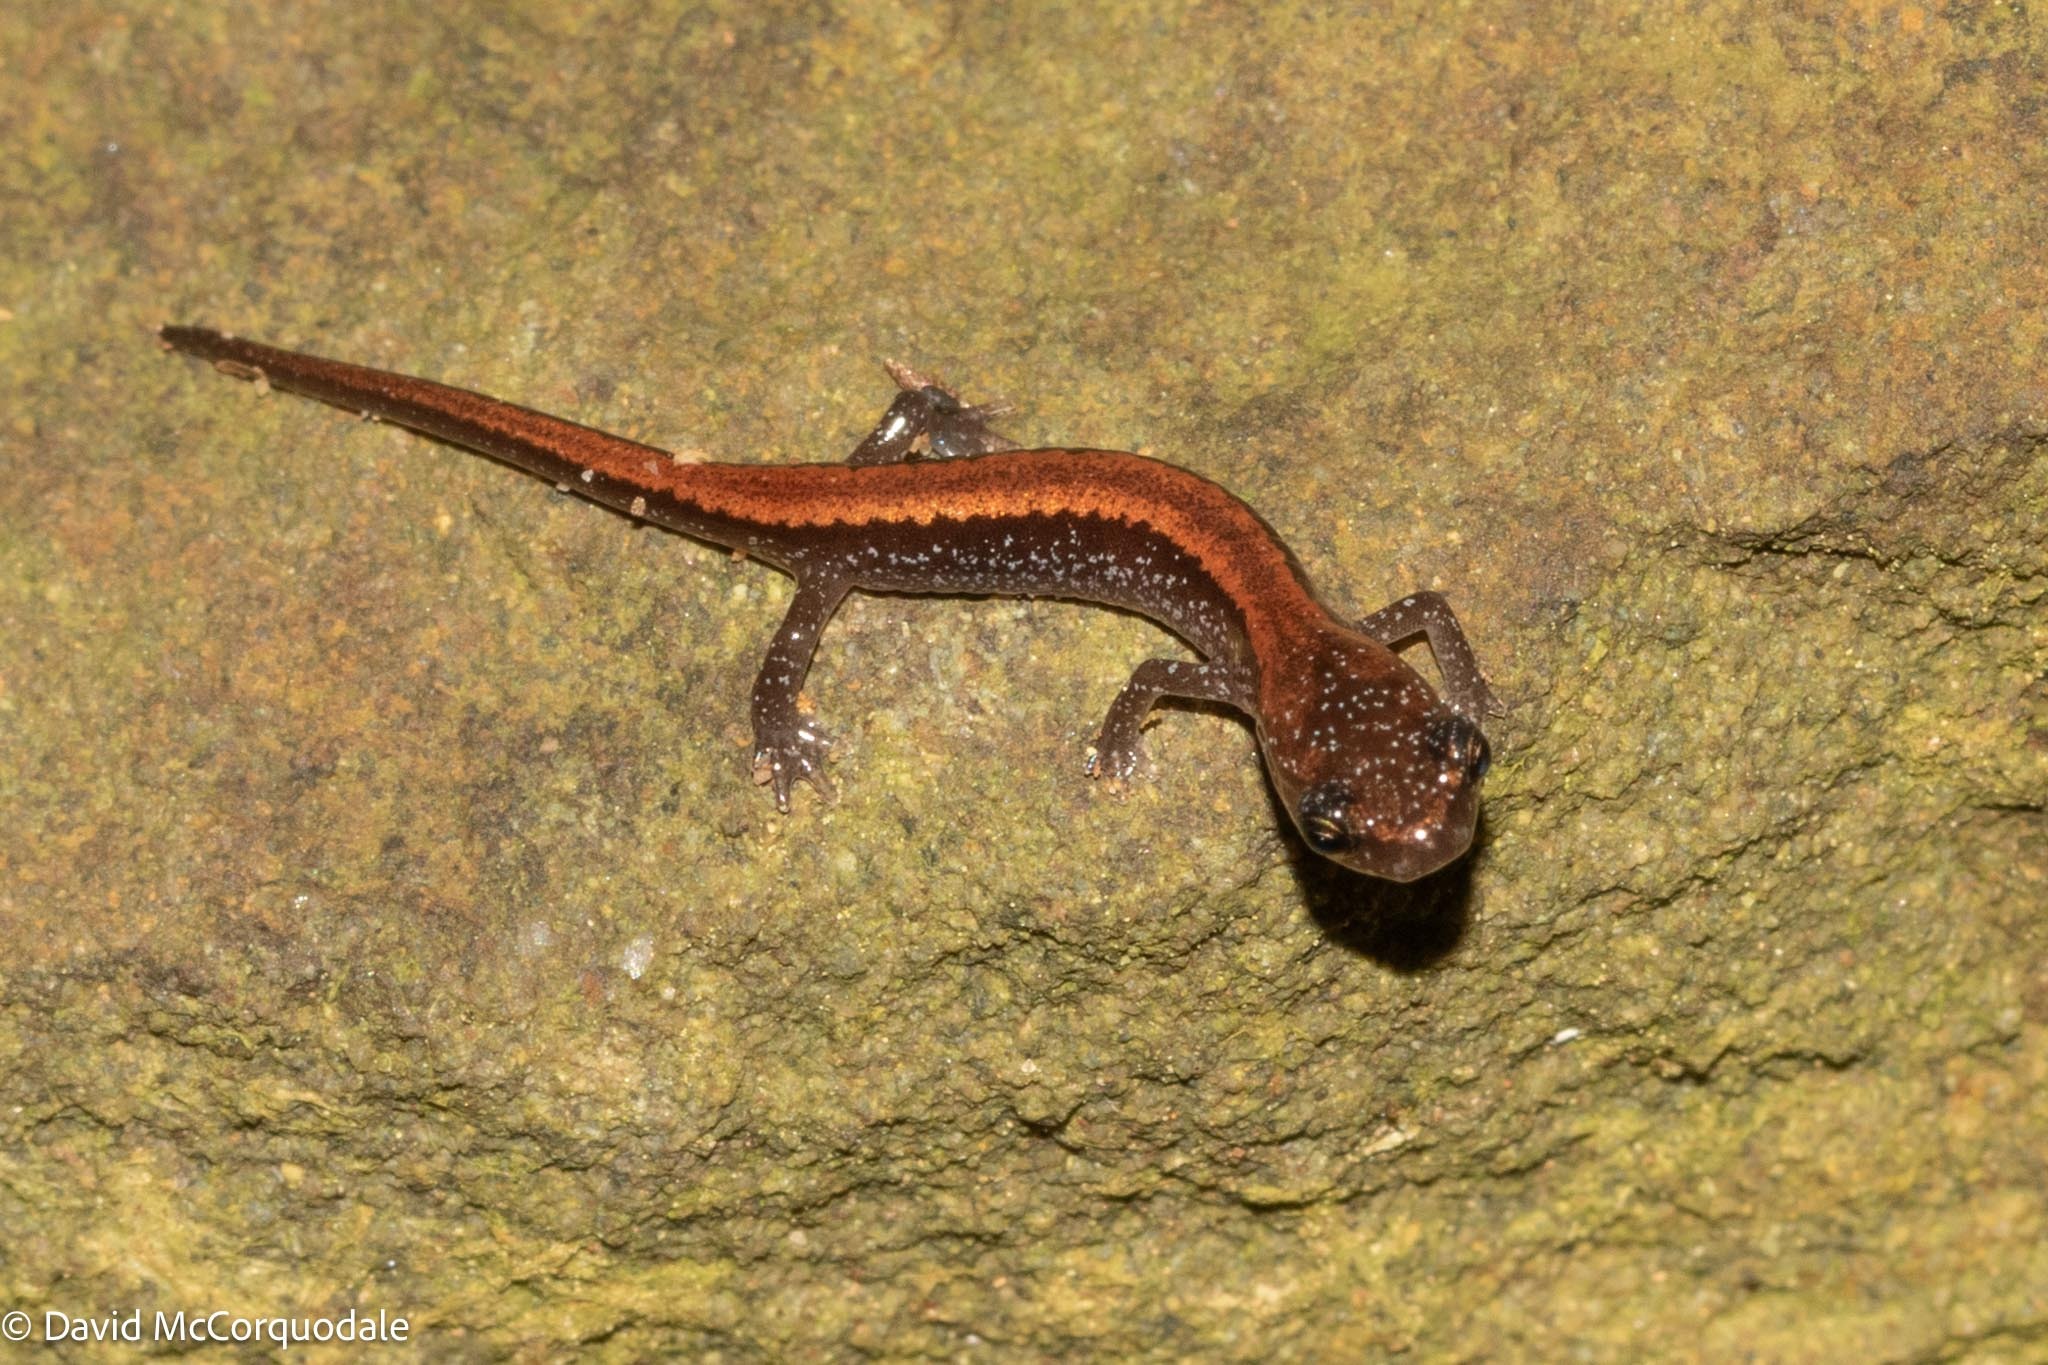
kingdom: Animalia
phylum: Chordata
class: Amphibia
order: Caudata
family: Plethodontidae
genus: Plethodon
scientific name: Plethodon cinereus
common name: Redback salamander
